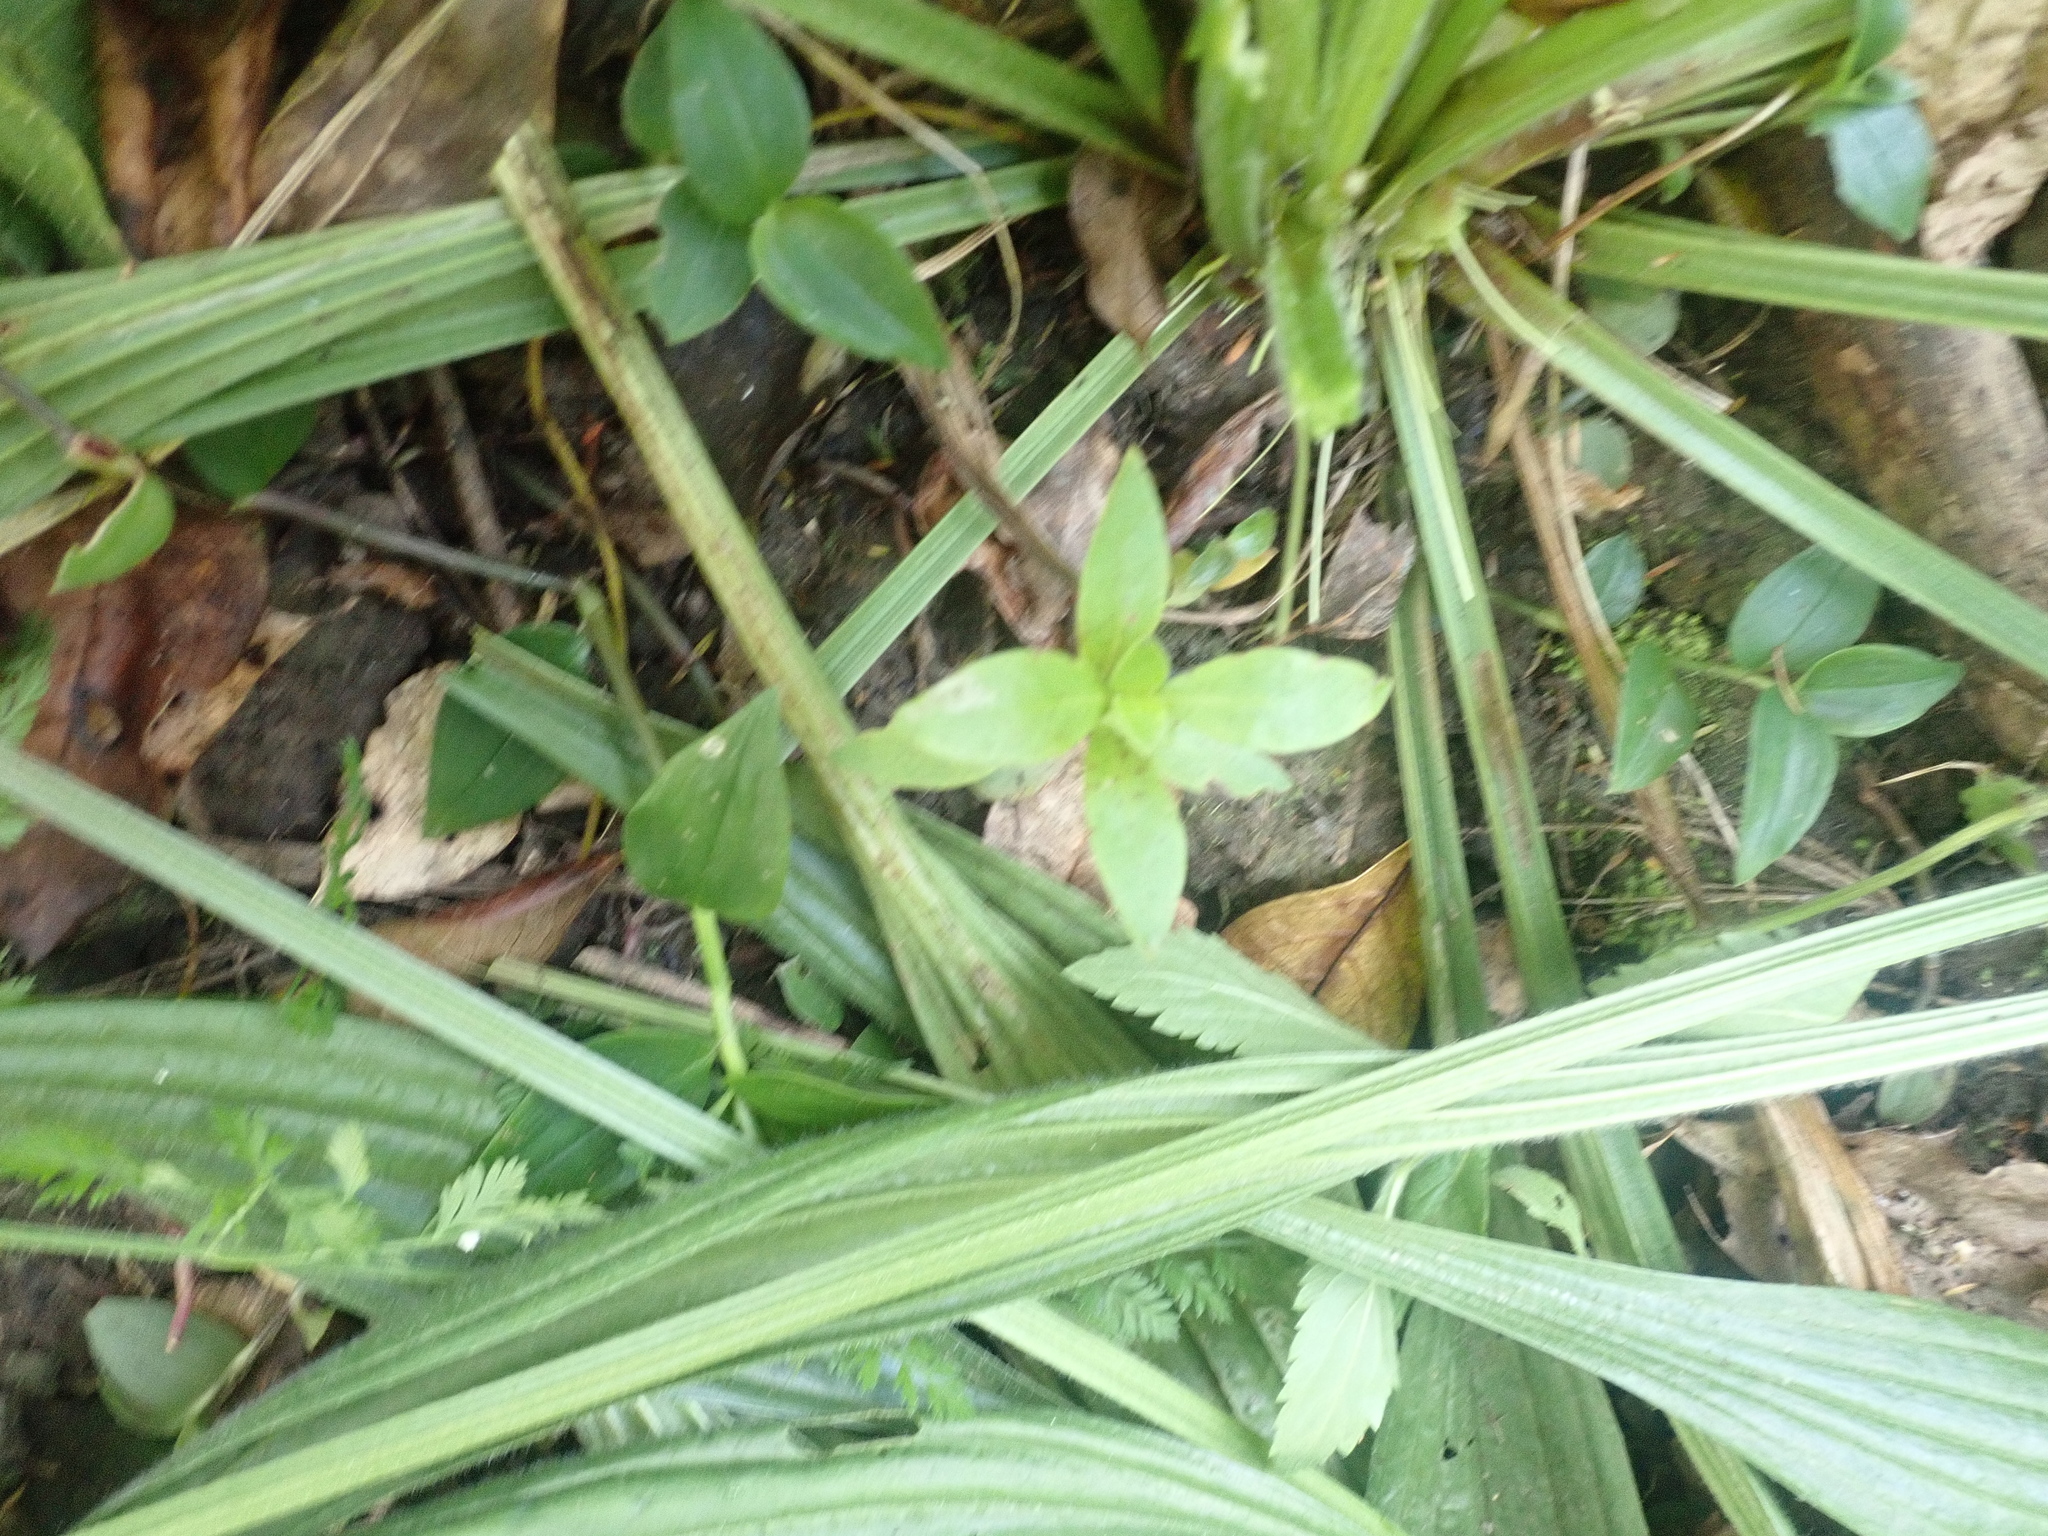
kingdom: Plantae
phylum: Tracheophyta
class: Magnoliopsida
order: Gentianales
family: Rubiaceae
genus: Coprosma
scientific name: Coprosma robusta
